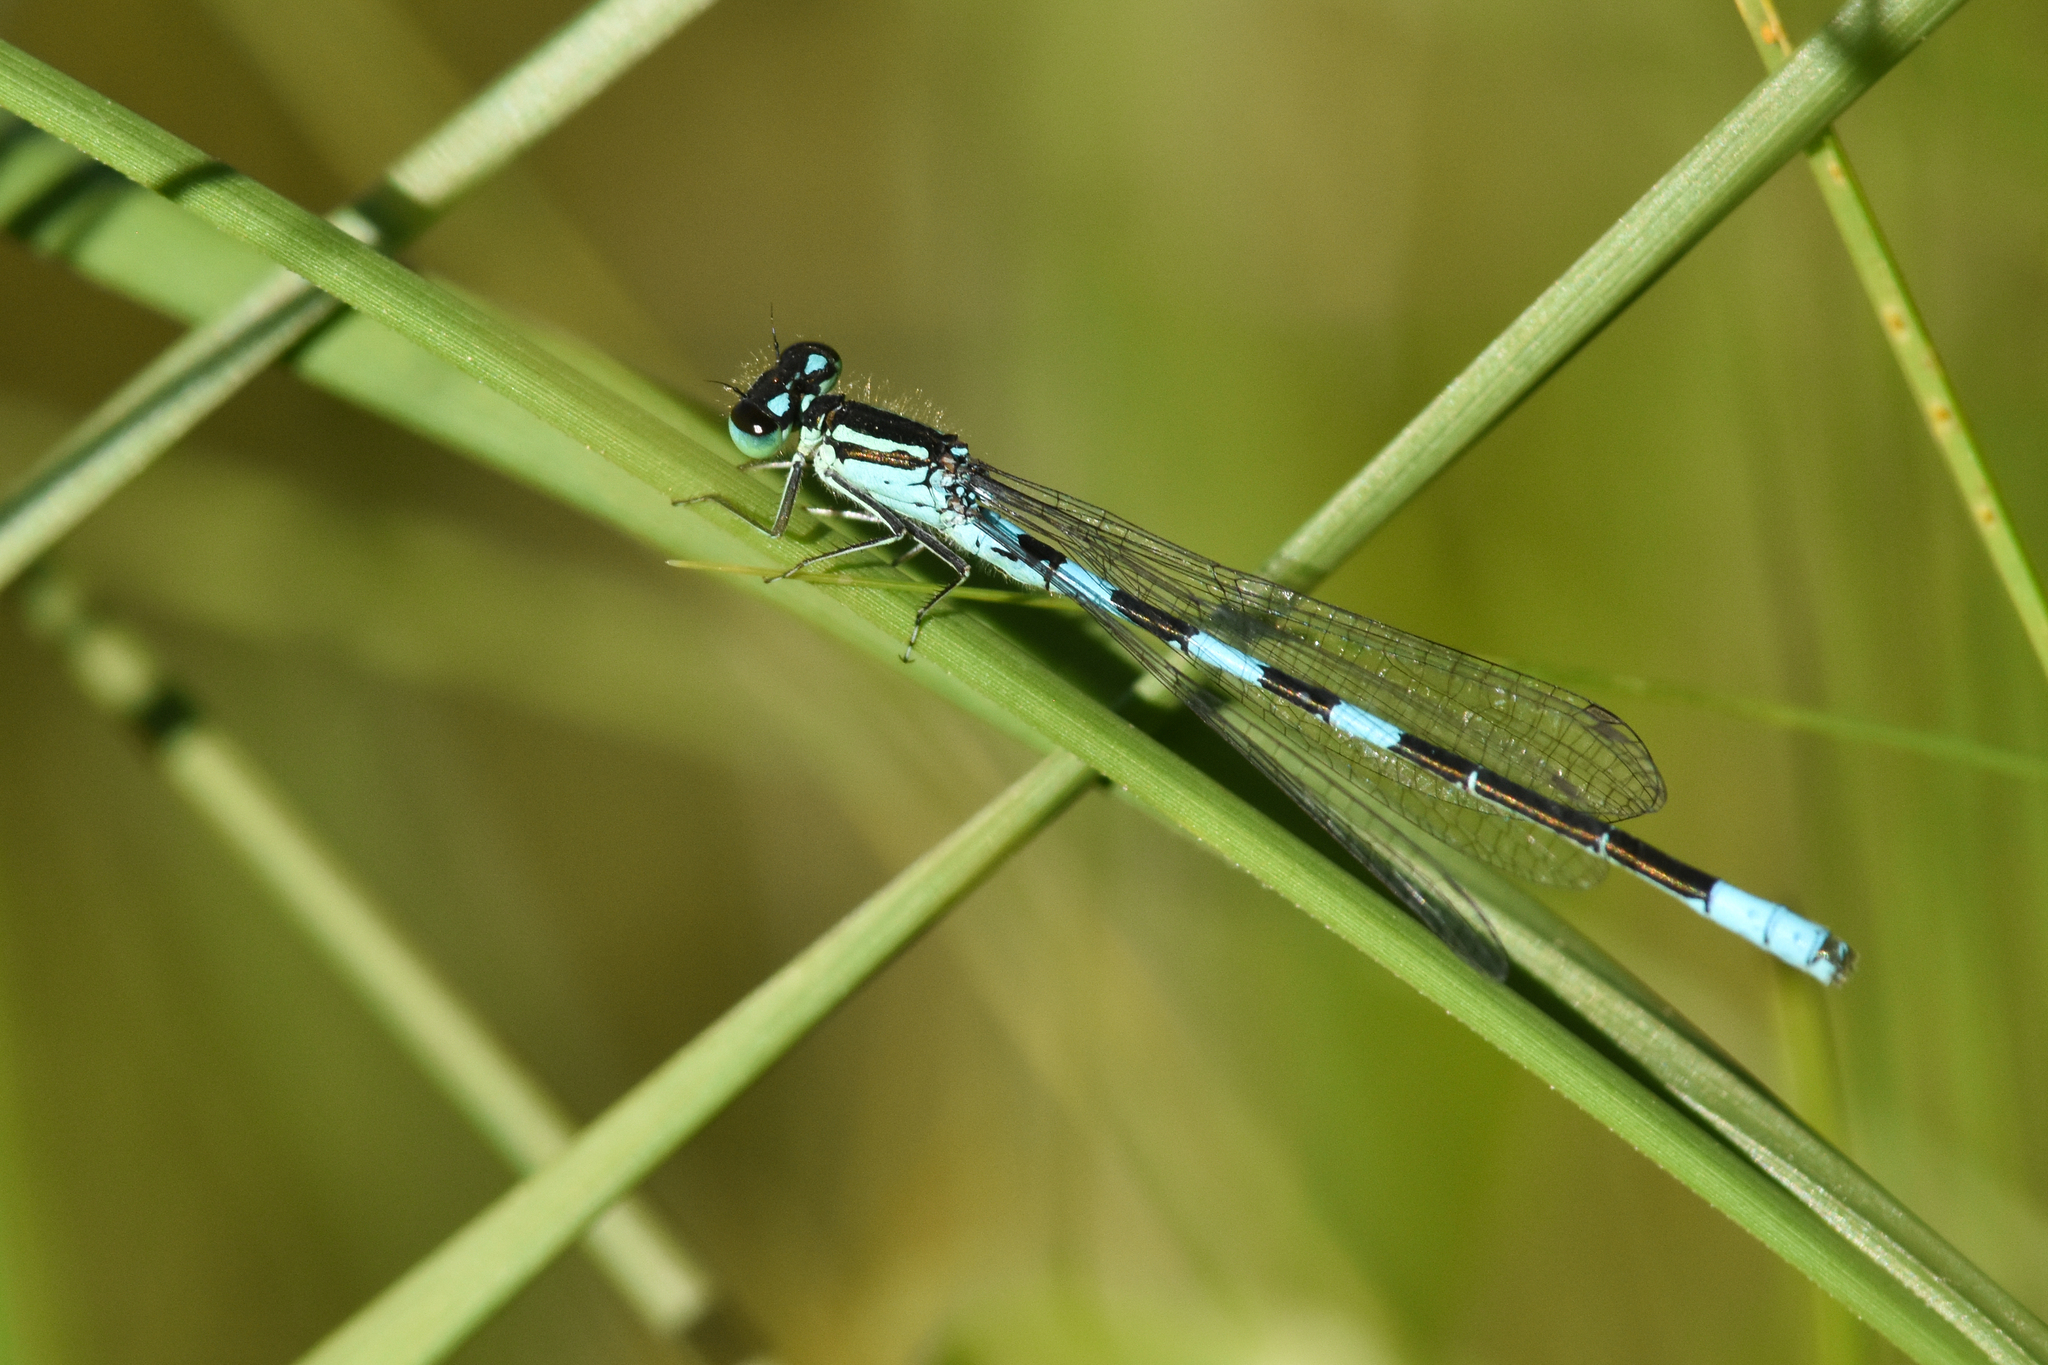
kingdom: Animalia
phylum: Arthropoda
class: Insecta
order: Odonata
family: Coenagrionidae
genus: Coenagrion
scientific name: Coenagrion resolutum
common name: Taiga bluet
